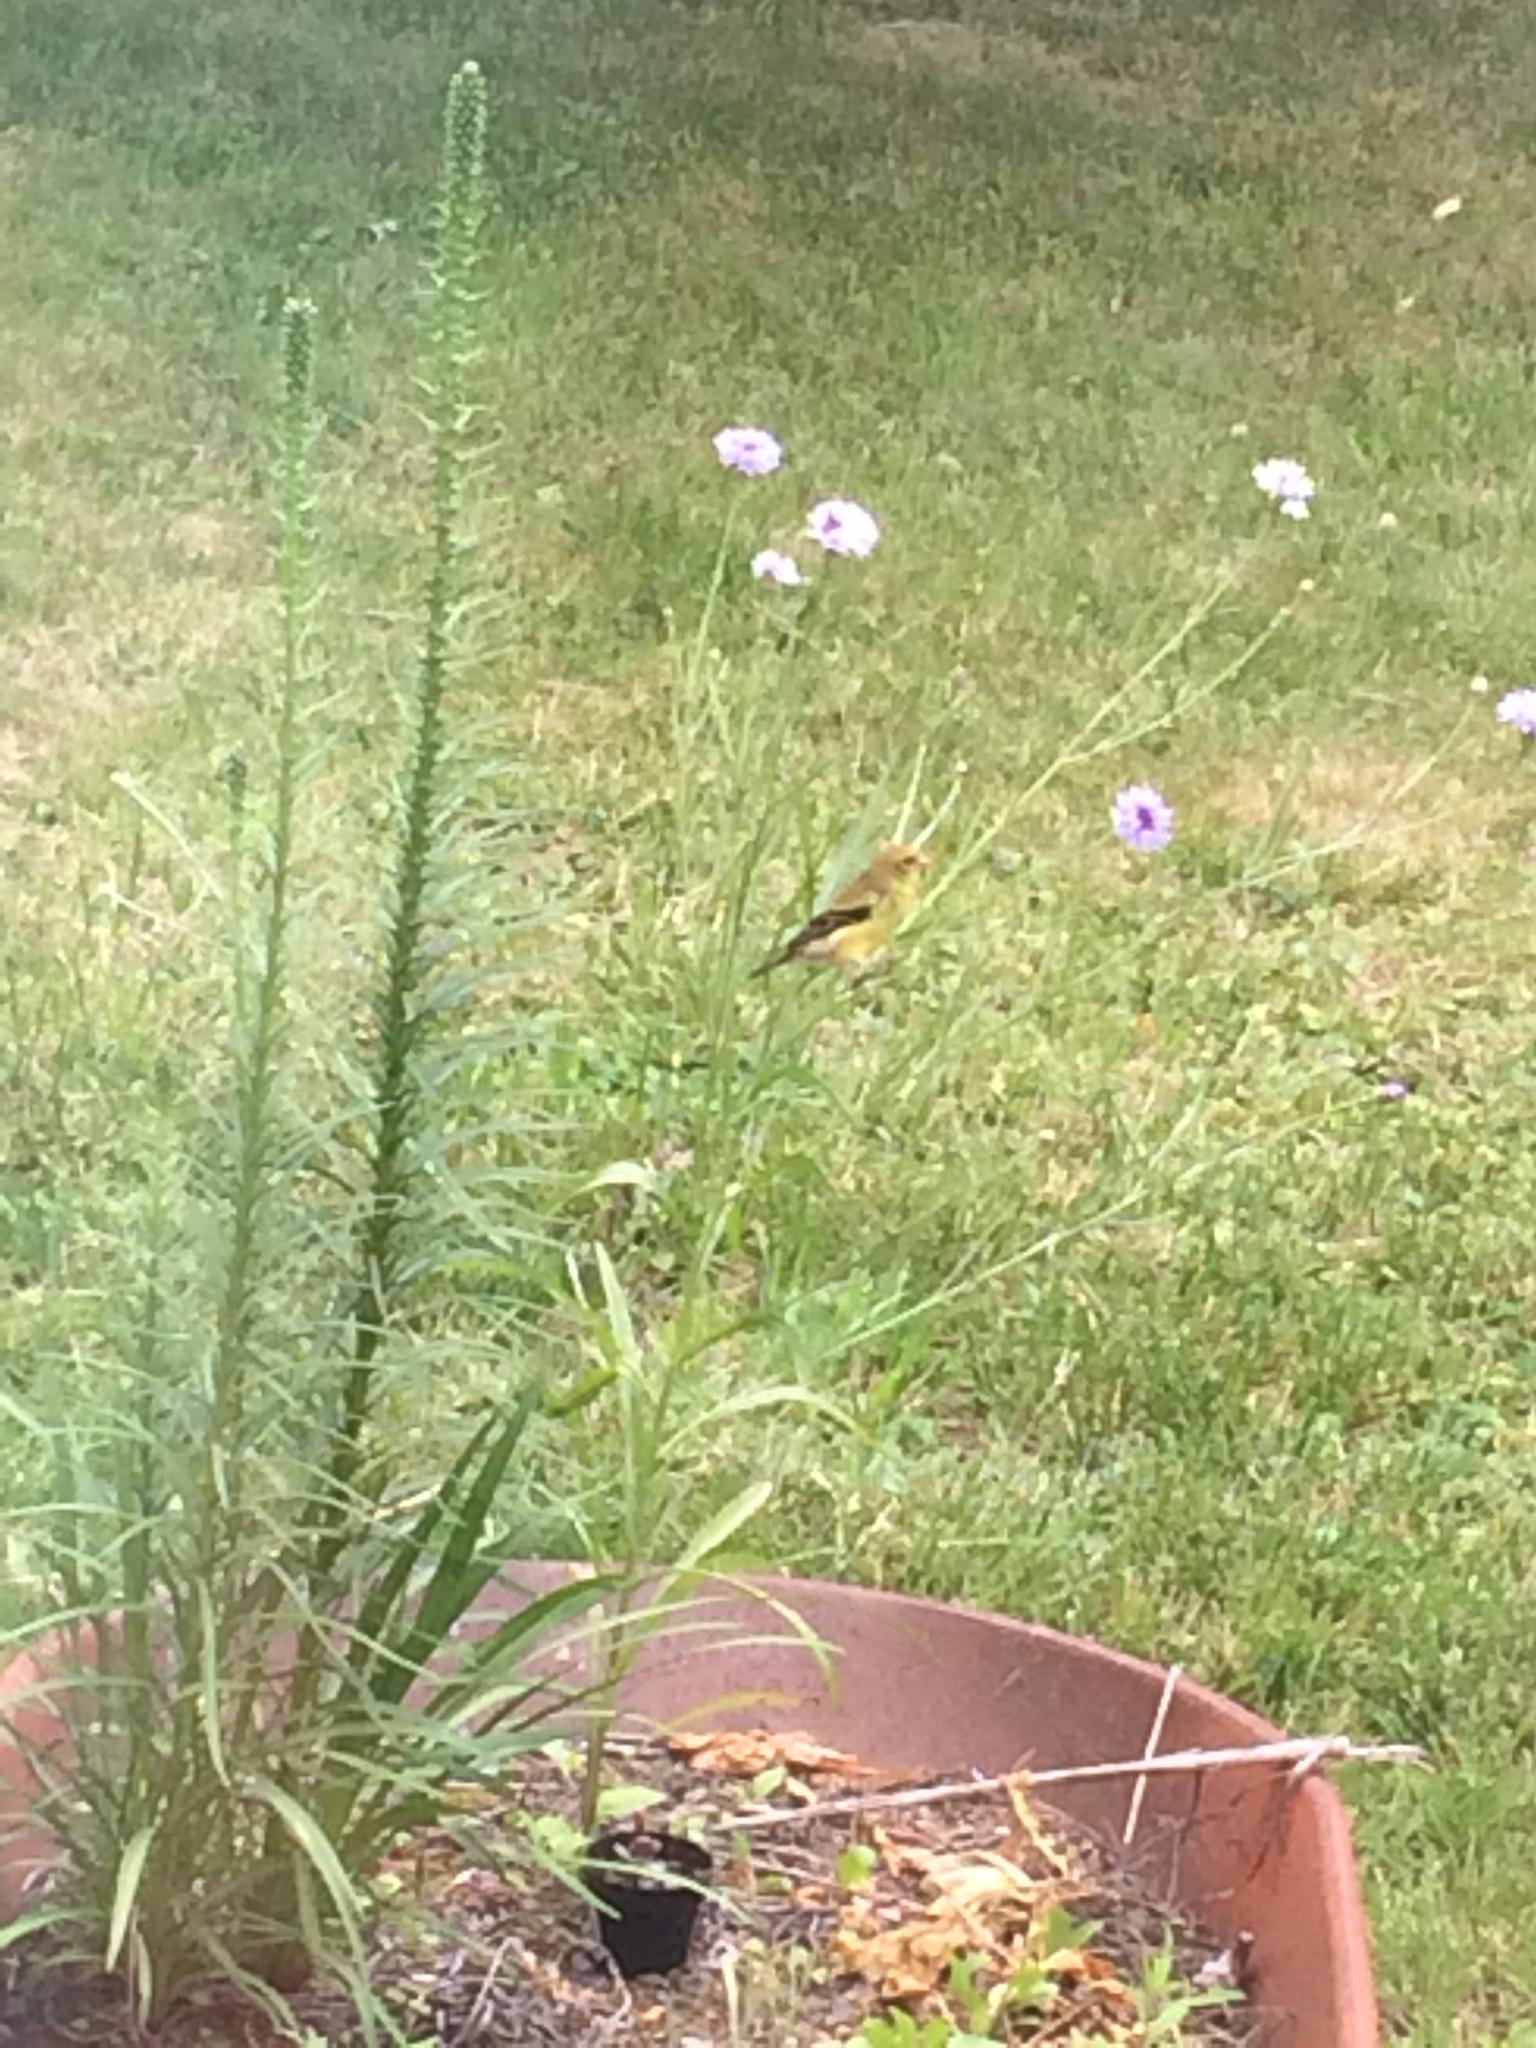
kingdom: Animalia
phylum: Chordata
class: Aves
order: Passeriformes
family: Fringillidae
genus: Spinus
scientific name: Spinus tristis
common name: American goldfinch
